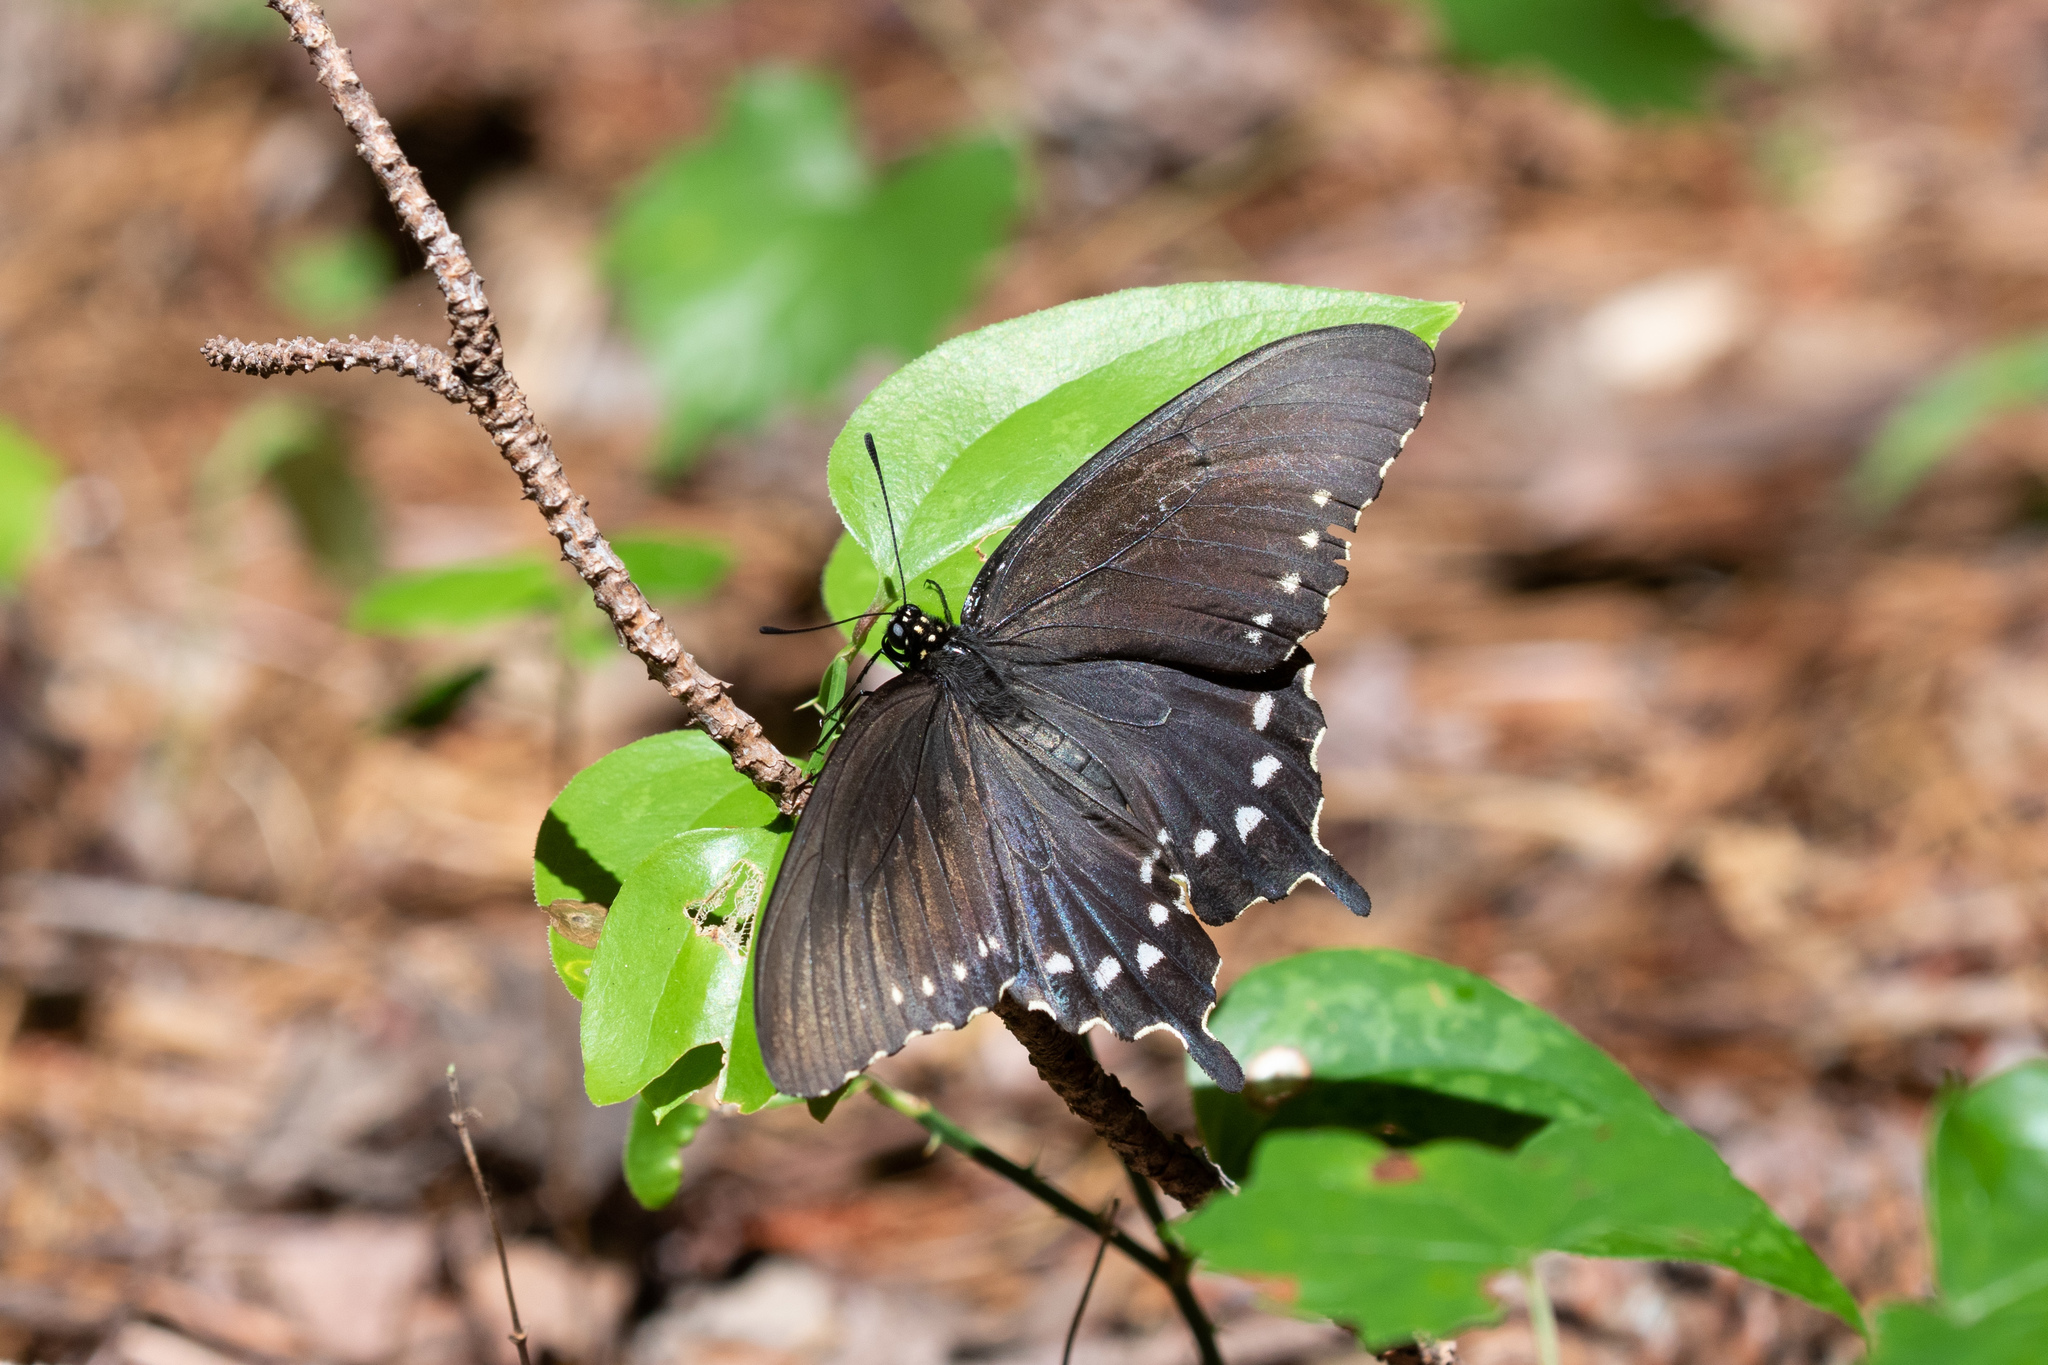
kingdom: Animalia
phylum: Arthropoda
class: Insecta
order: Lepidoptera
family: Papilionidae
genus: Battus
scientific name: Battus philenor
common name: Pipevine swallowtail
